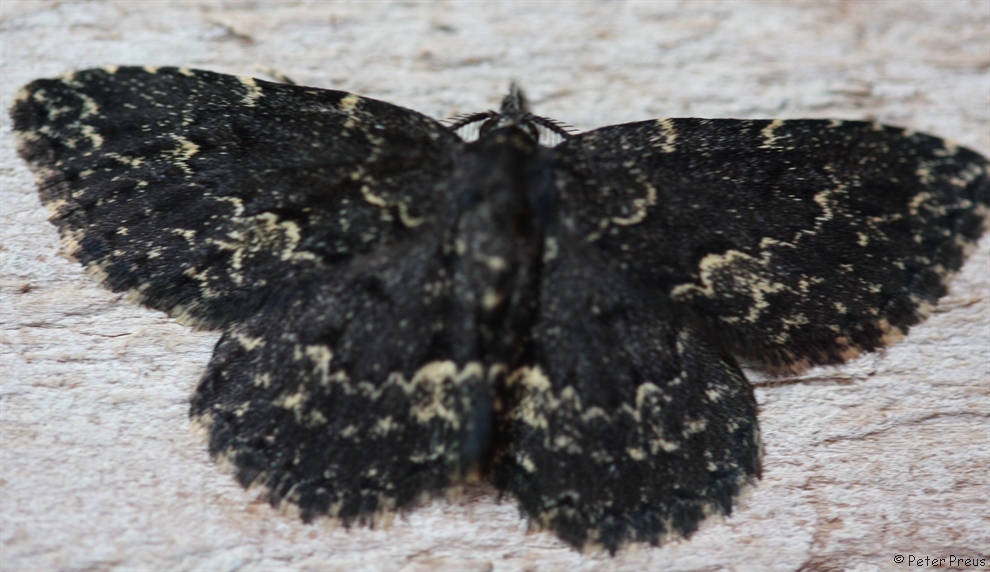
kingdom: Animalia
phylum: Arthropoda
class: Insecta
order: Lepidoptera
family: Erebidae
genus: Parascotia
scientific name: Parascotia fuliginaria
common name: Waved black
